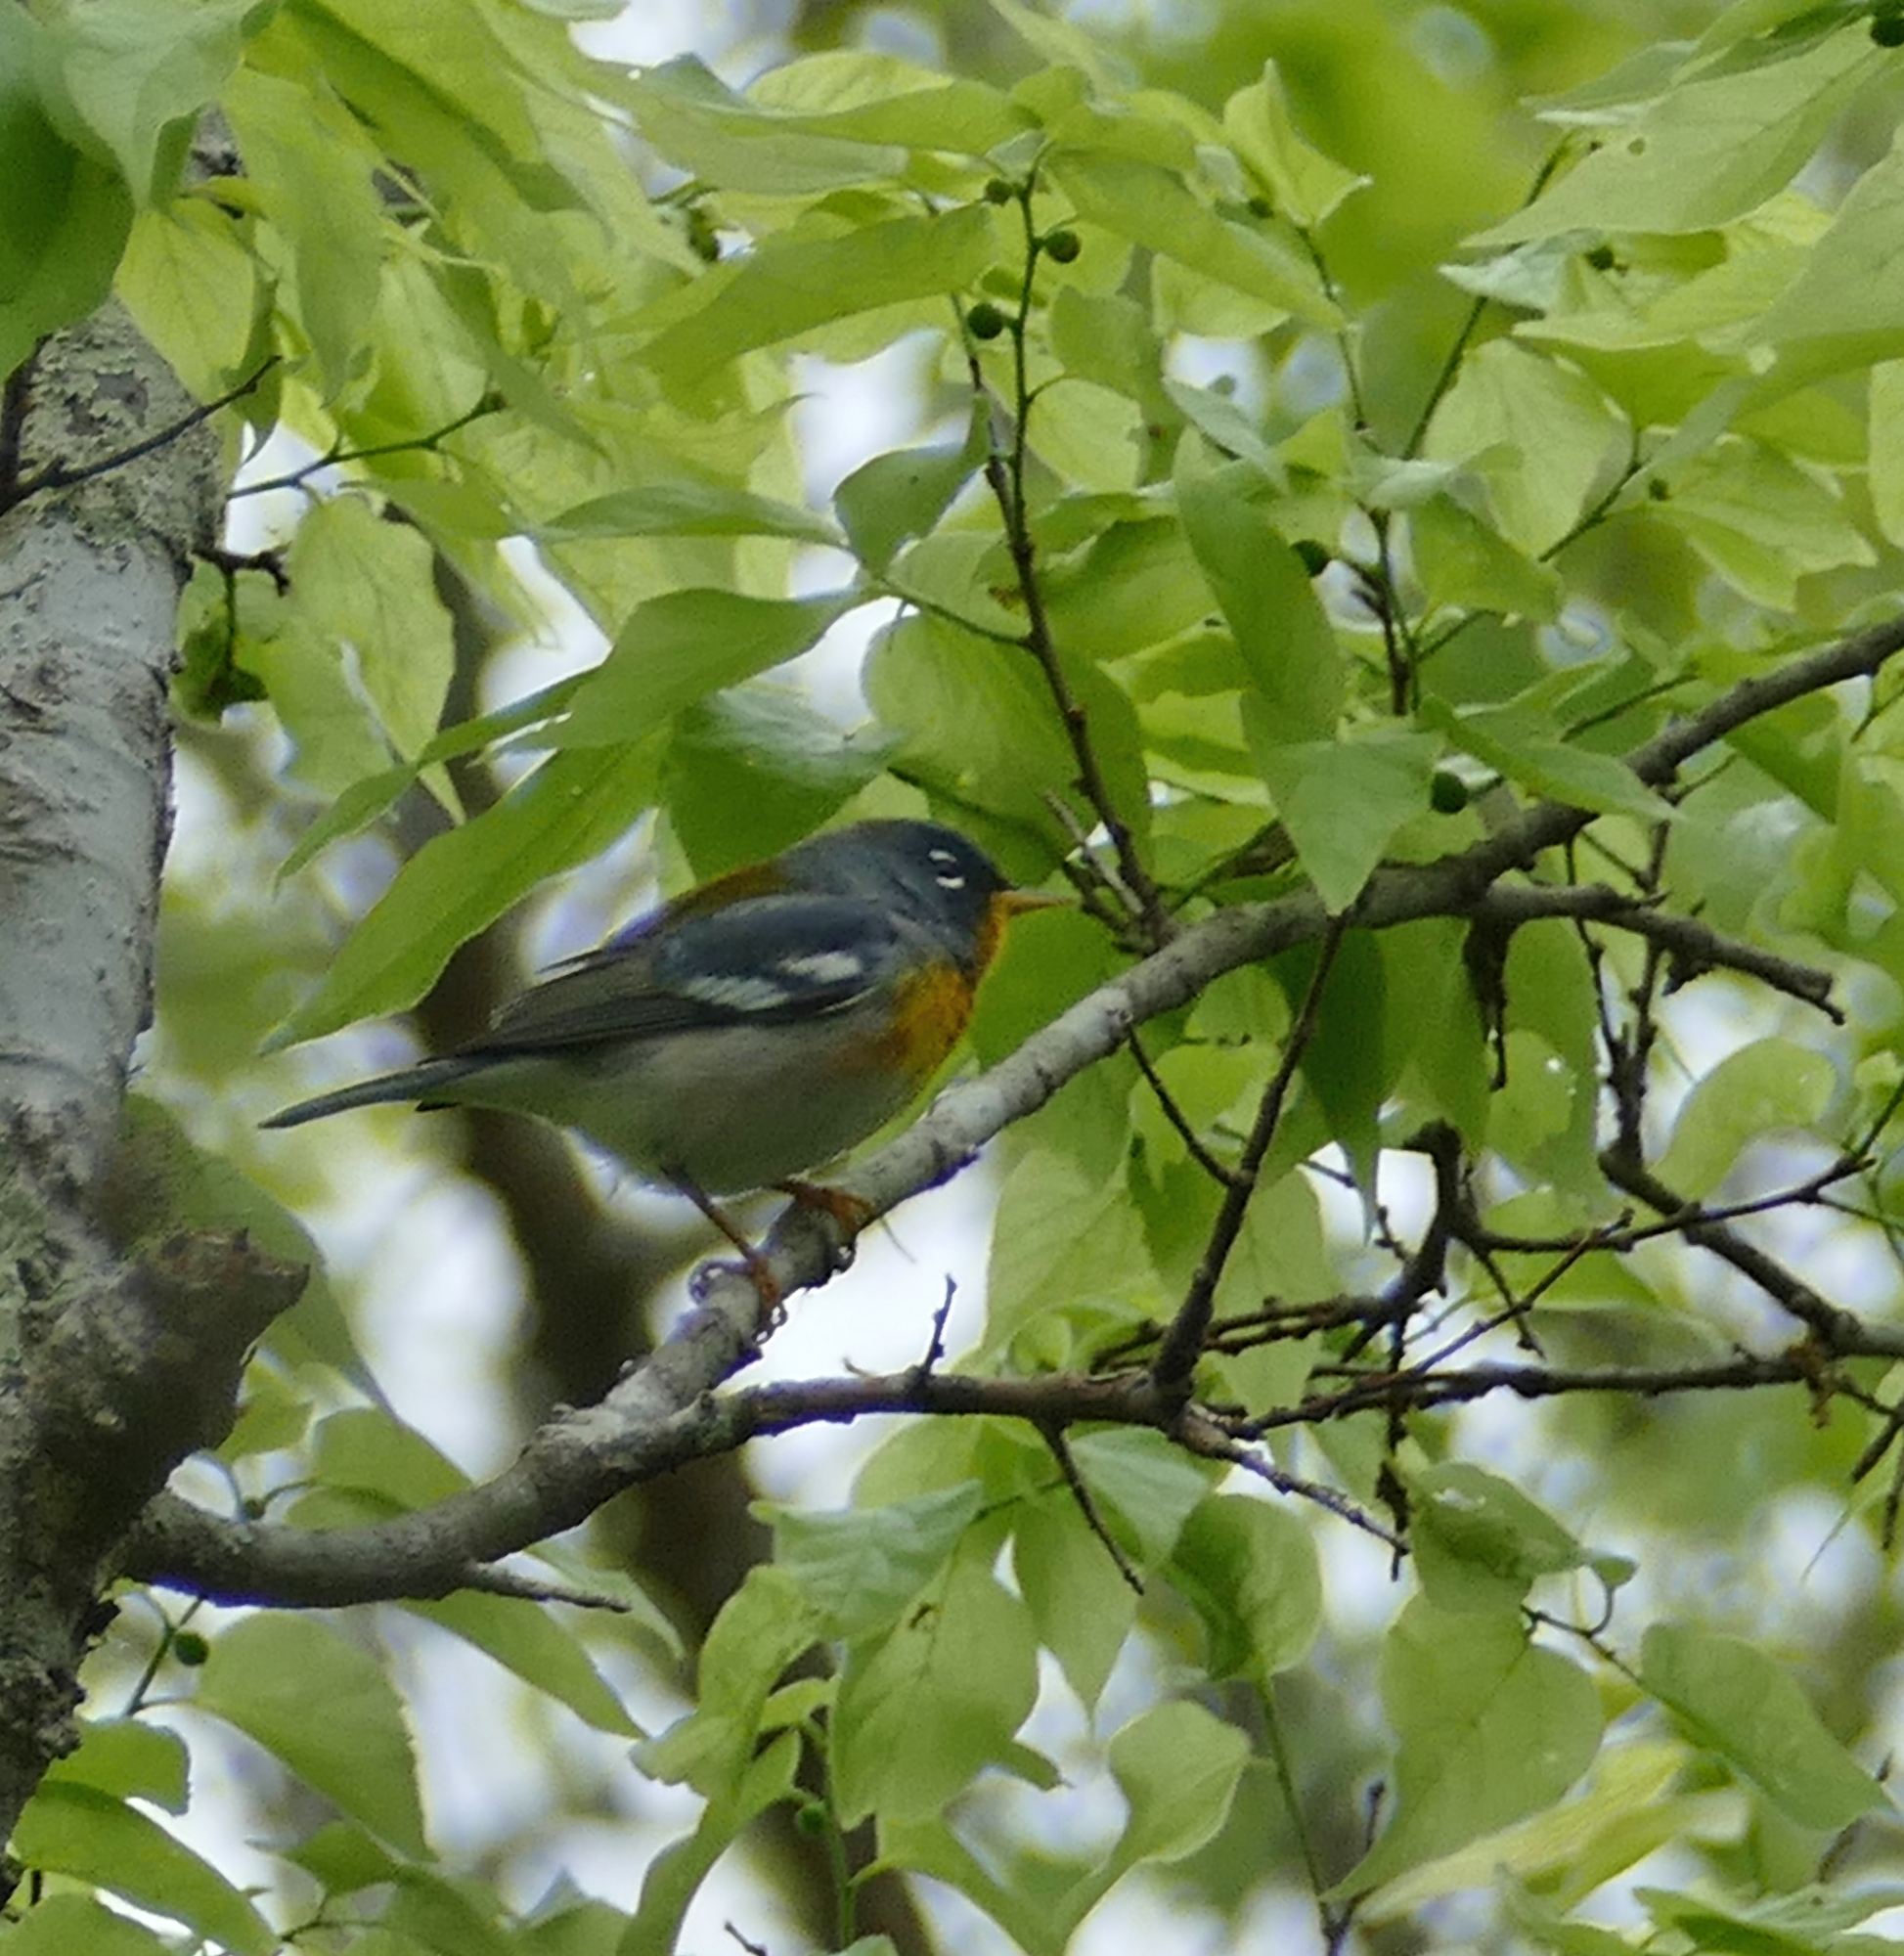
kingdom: Animalia
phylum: Chordata
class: Aves
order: Passeriformes
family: Parulidae
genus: Setophaga
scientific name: Setophaga americana
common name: Northern parula
